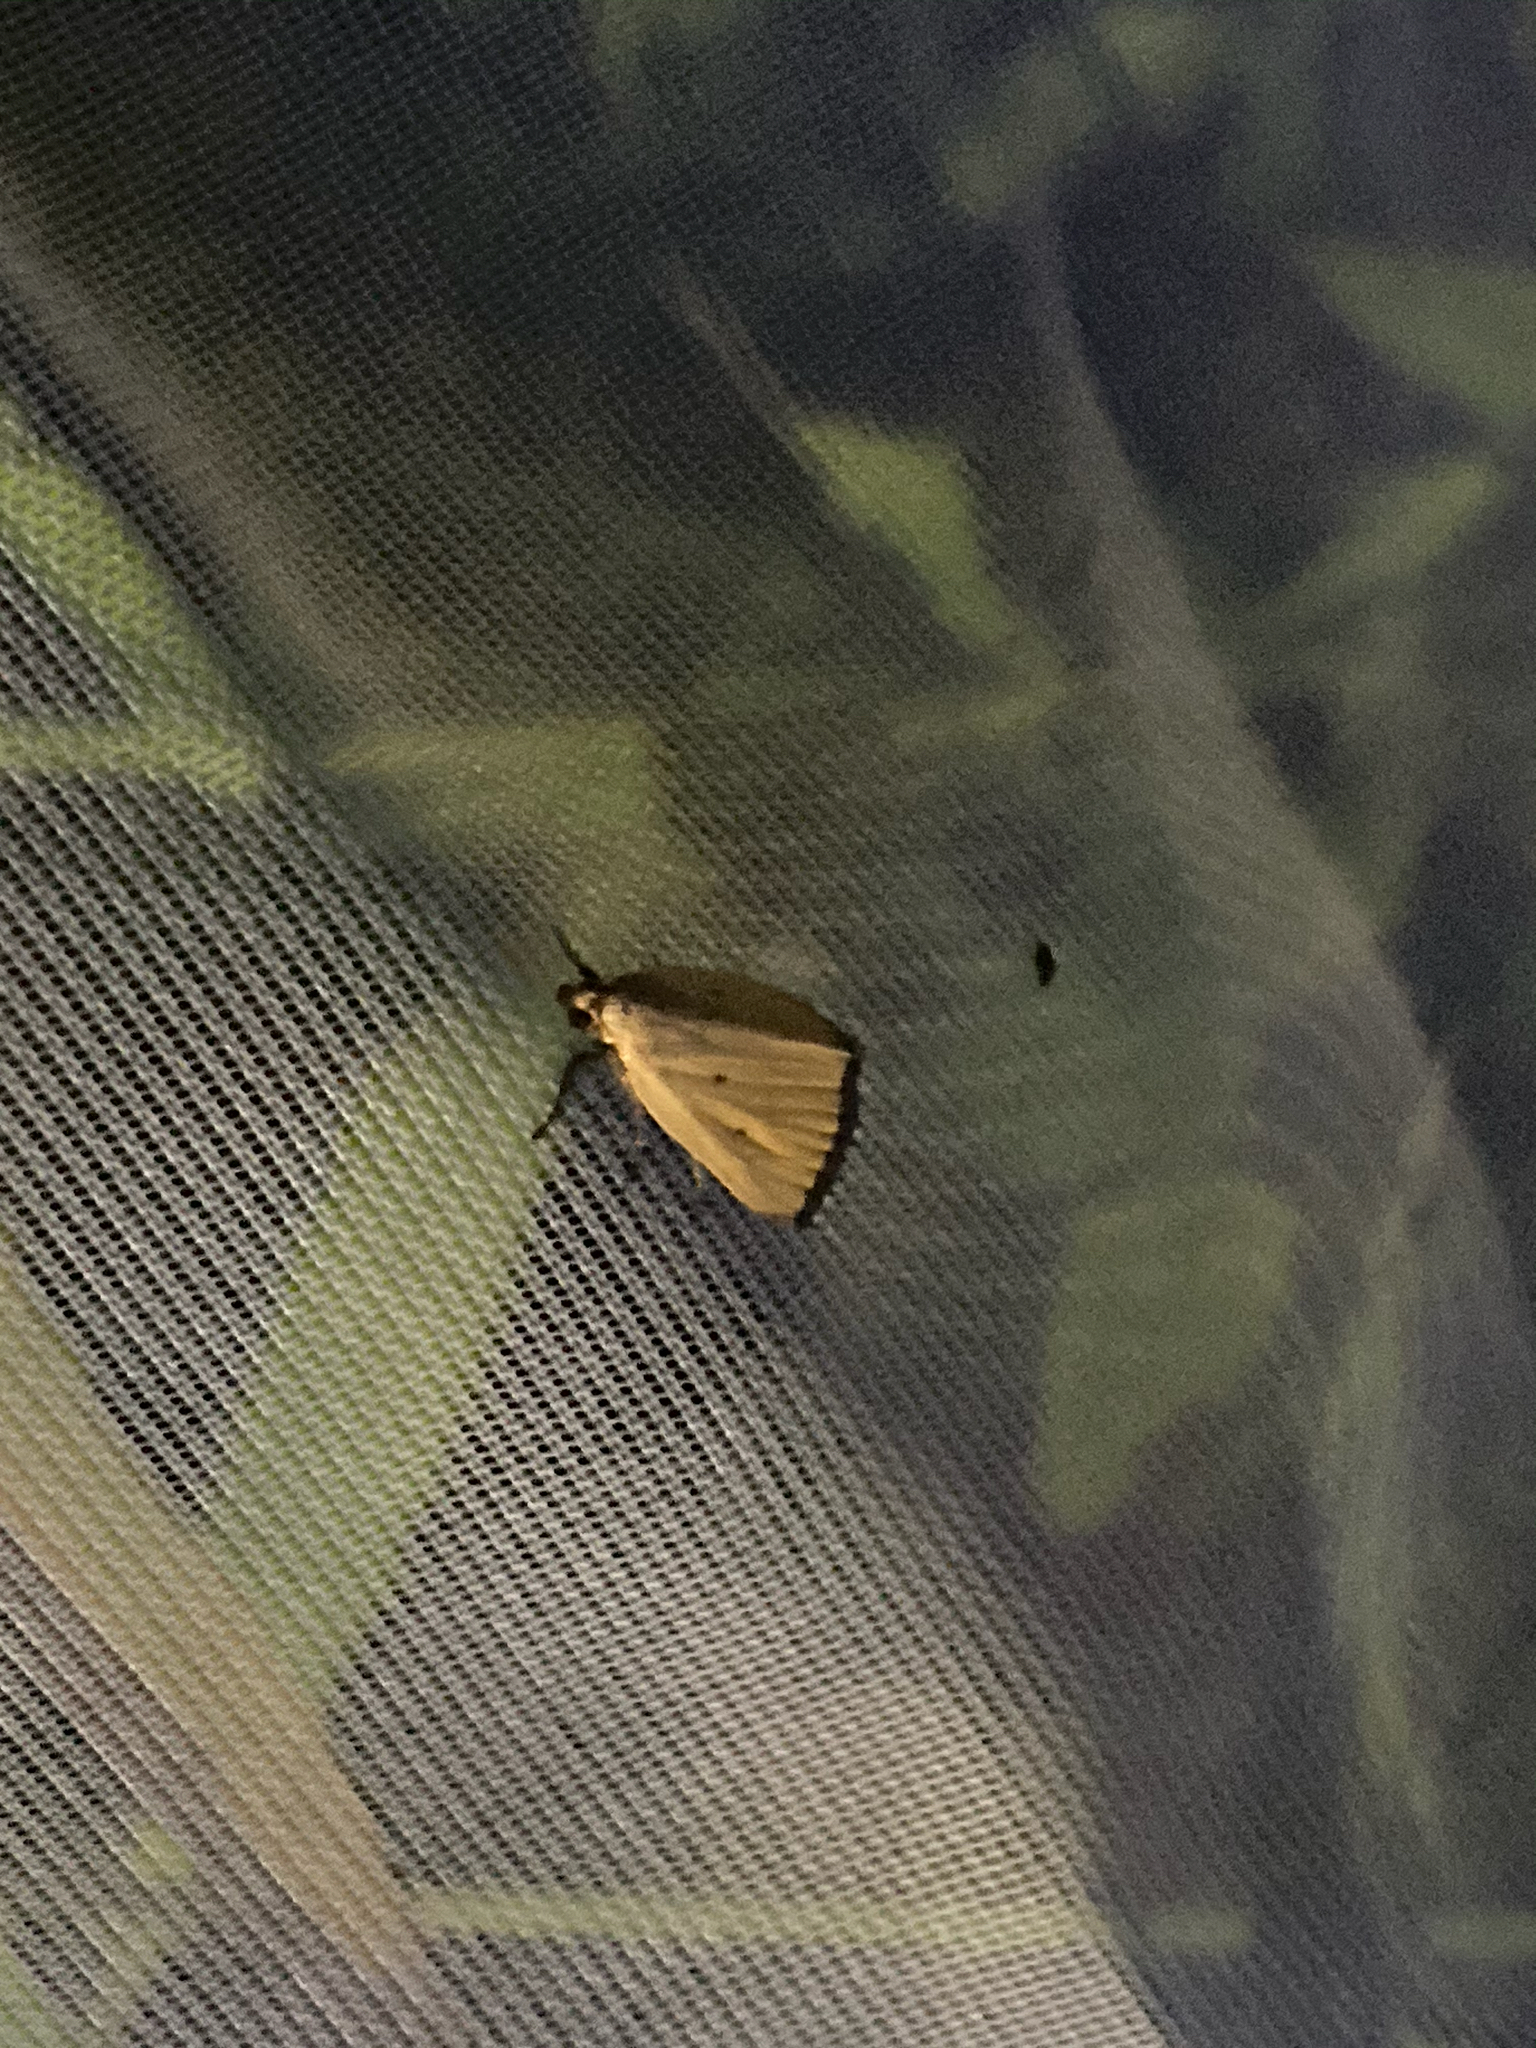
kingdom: Animalia
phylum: Arthropoda
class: Insecta
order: Lepidoptera
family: Noctuidae
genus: Marimatha
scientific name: Marimatha nigrofimbria
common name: Black-bordered lemon moth
